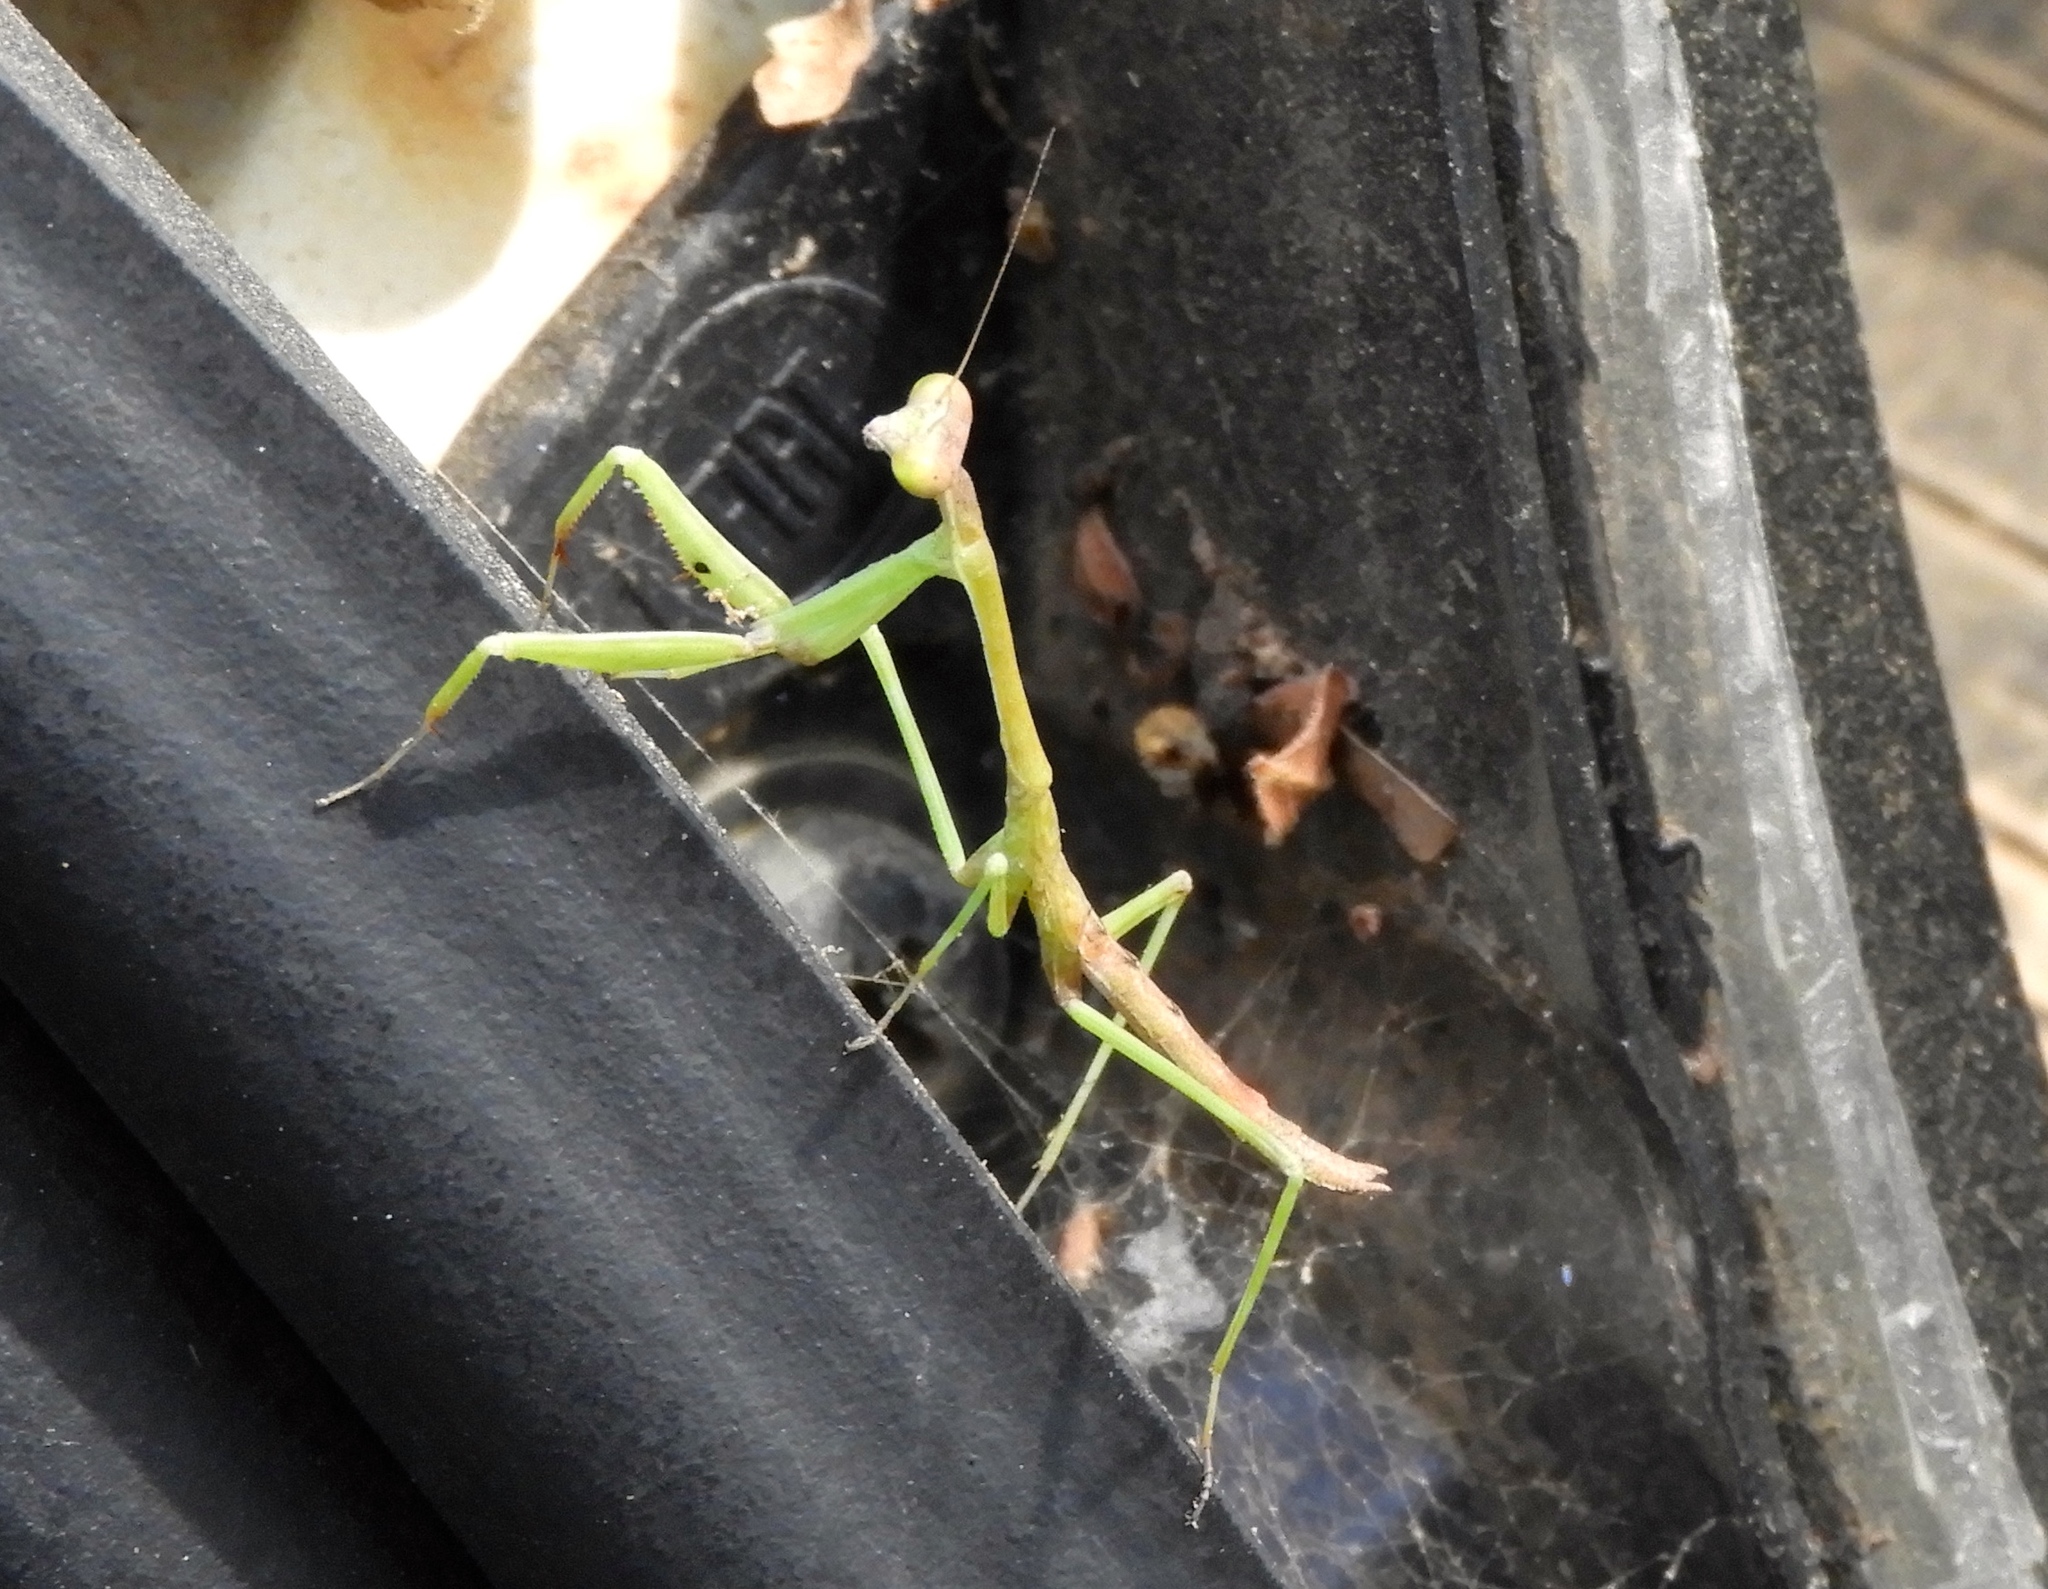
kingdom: Animalia
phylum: Arthropoda
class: Insecta
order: Mantodea
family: Mantidae
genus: Stagmomantis
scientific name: Stagmomantis colorata
